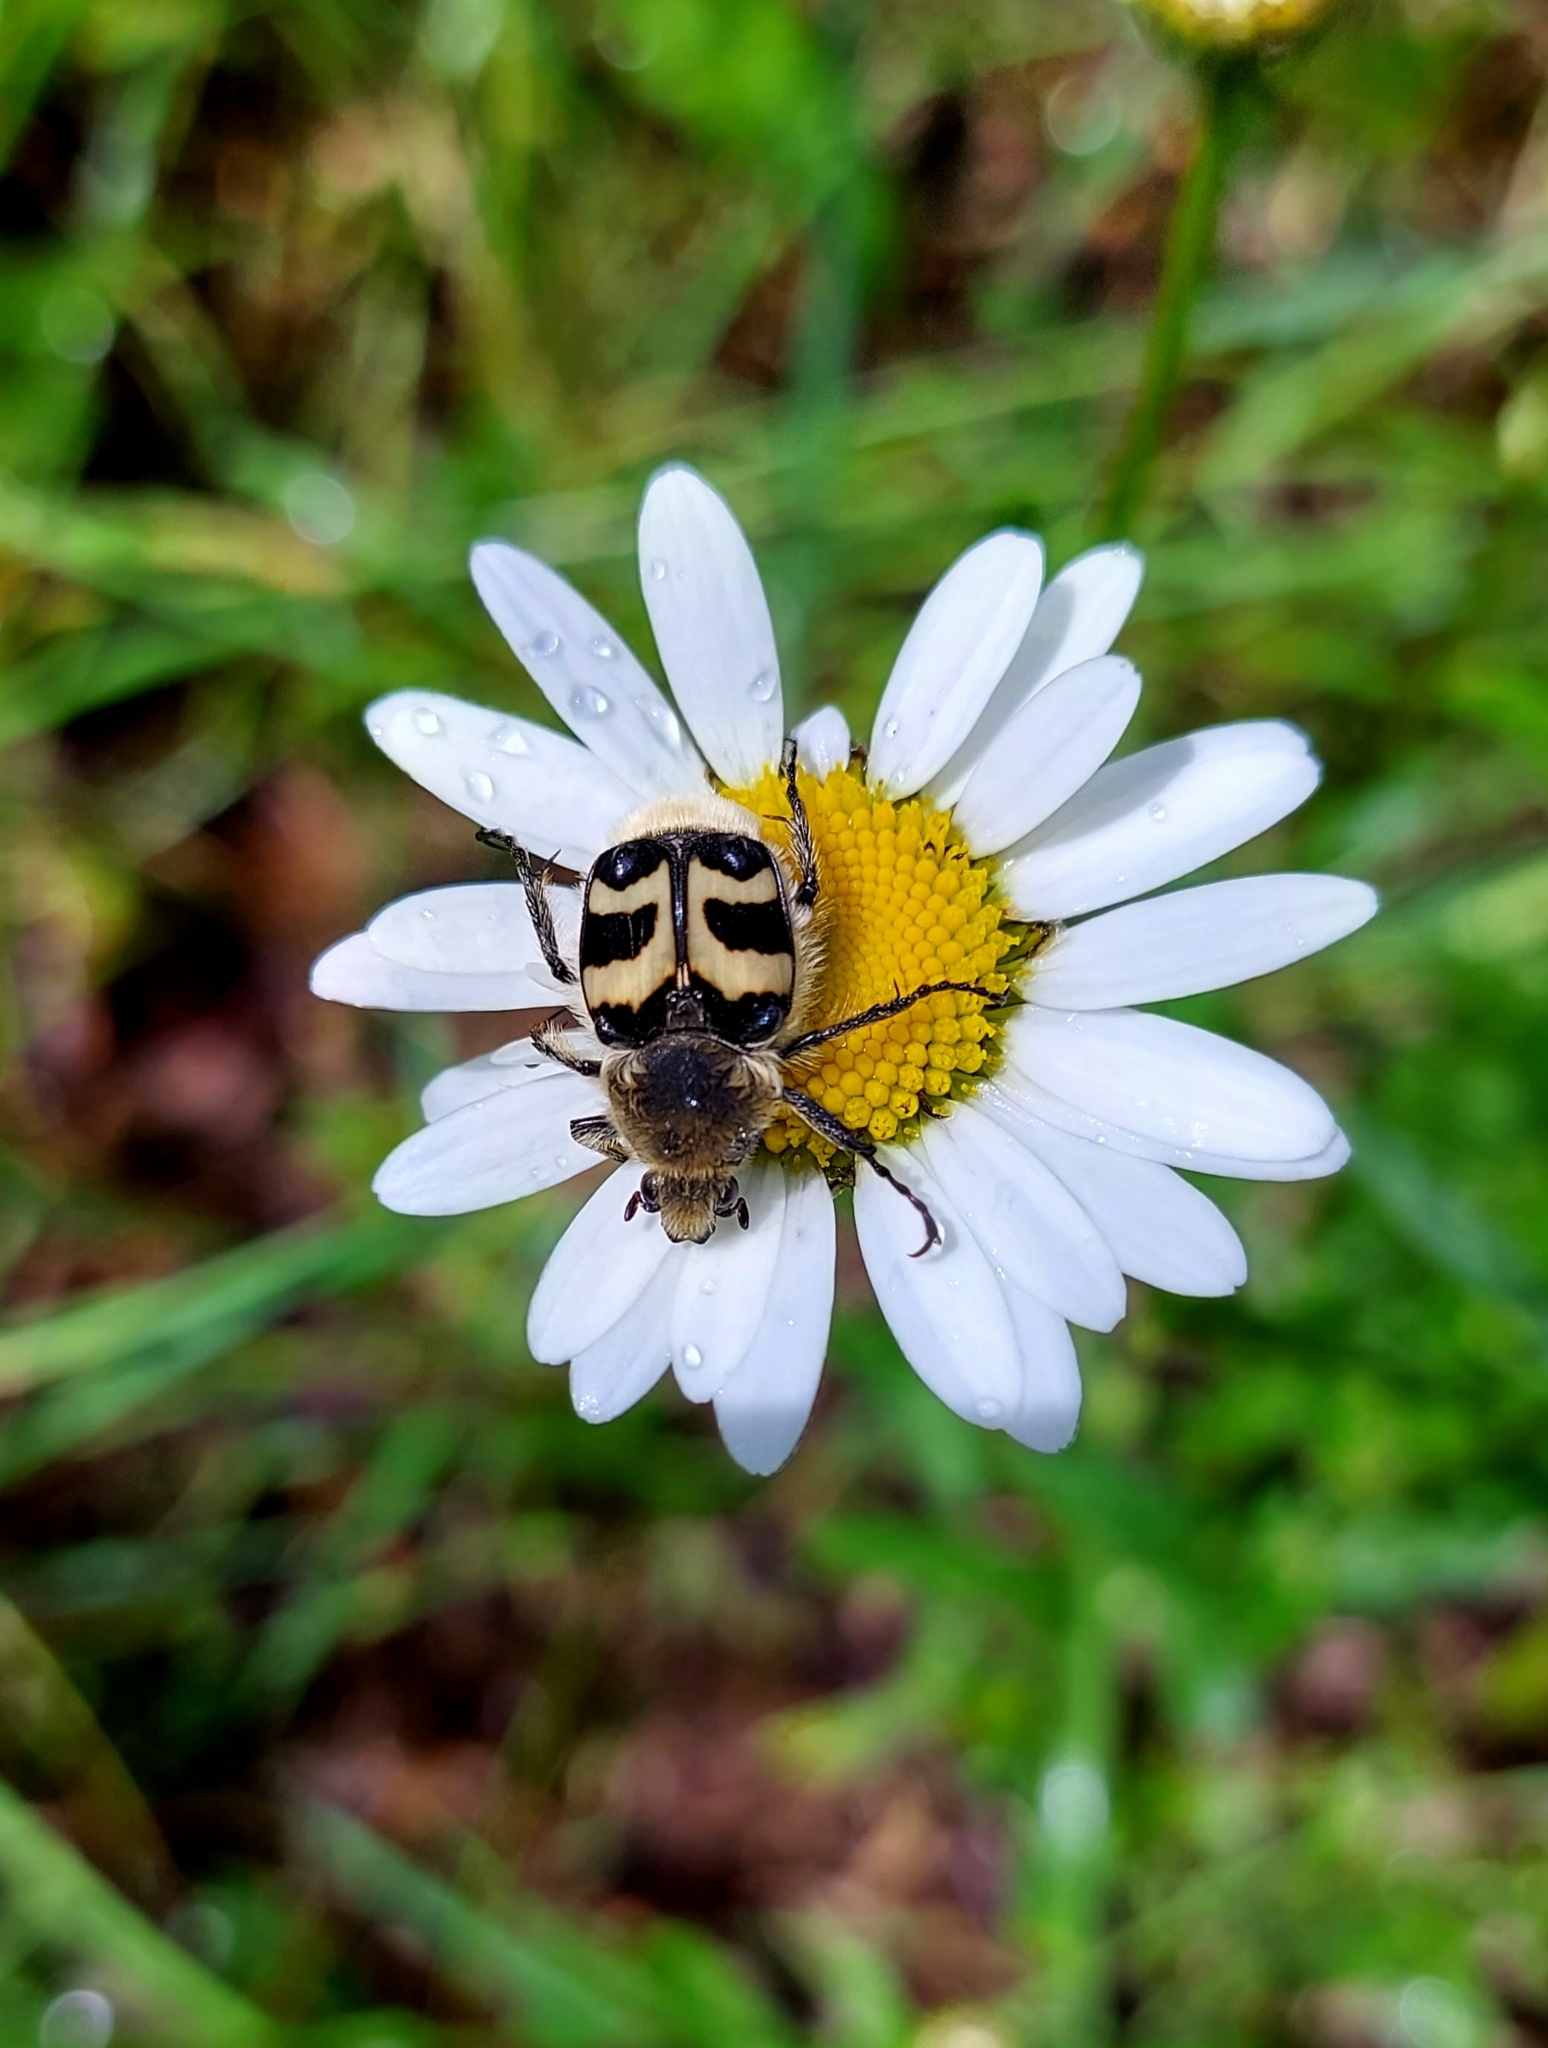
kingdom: Animalia
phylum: Arthropoda
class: Insecta
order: Coleoptera
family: Scarabaeidae
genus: Trichius
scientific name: Trichius fasciatus
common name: Bee beetle
